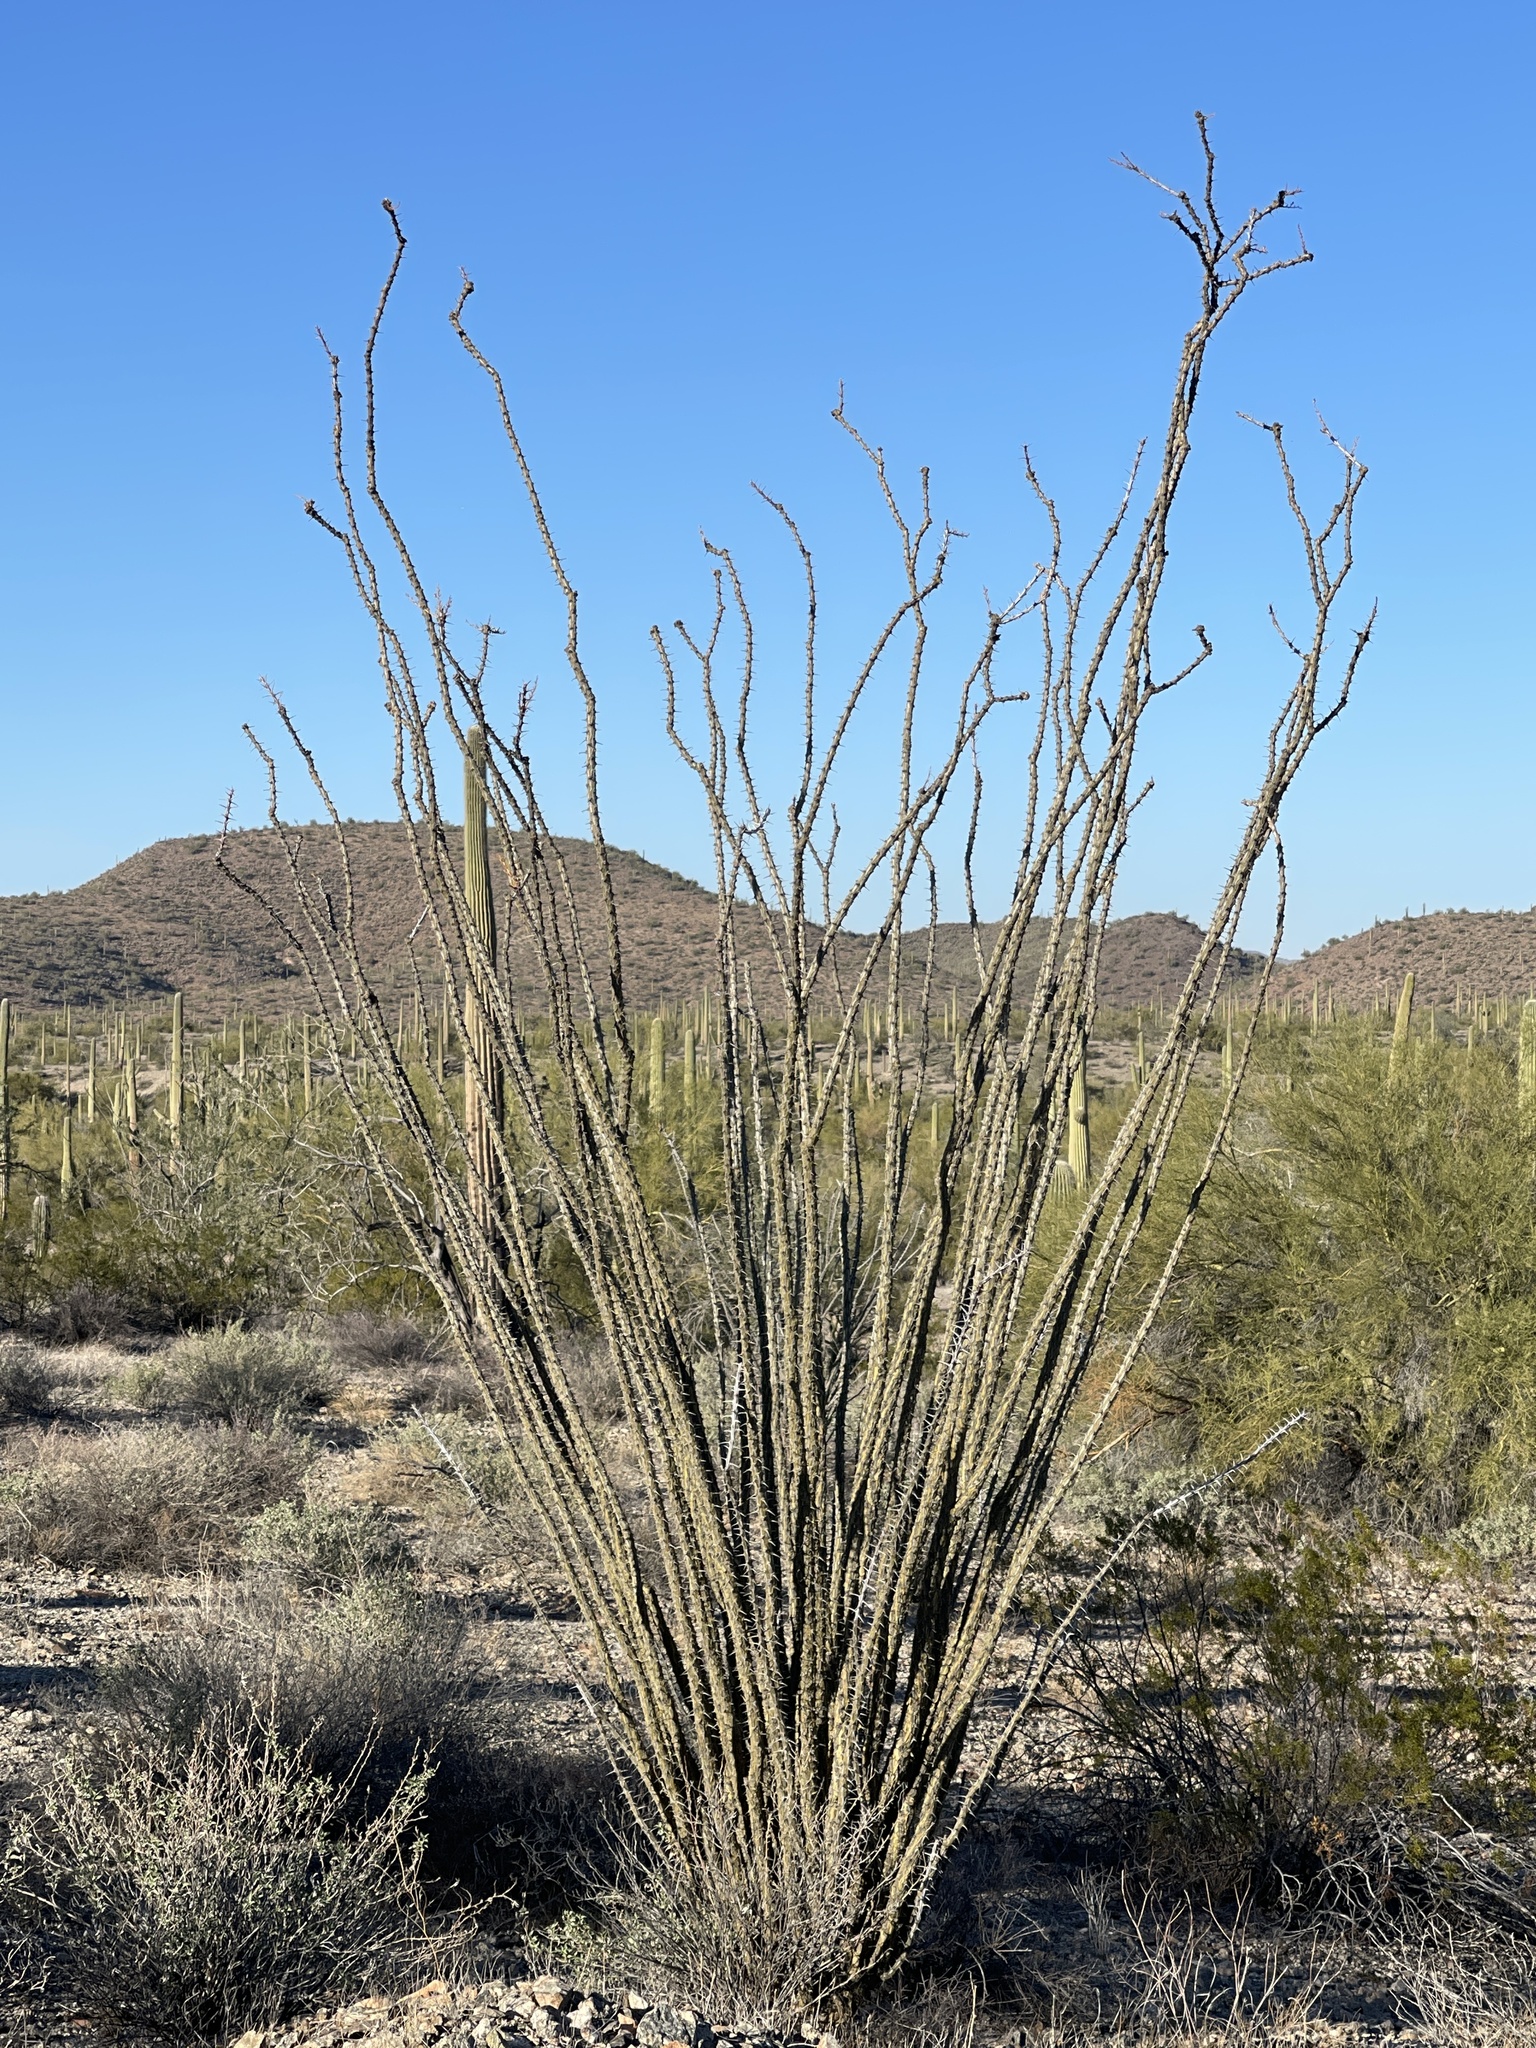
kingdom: Plantae
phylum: Tracheophyta
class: Magnoliopsida
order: Ericales
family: Fouquieriaceae
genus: Fouquieria
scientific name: Fouquieria splendens
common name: Vine-cactus
